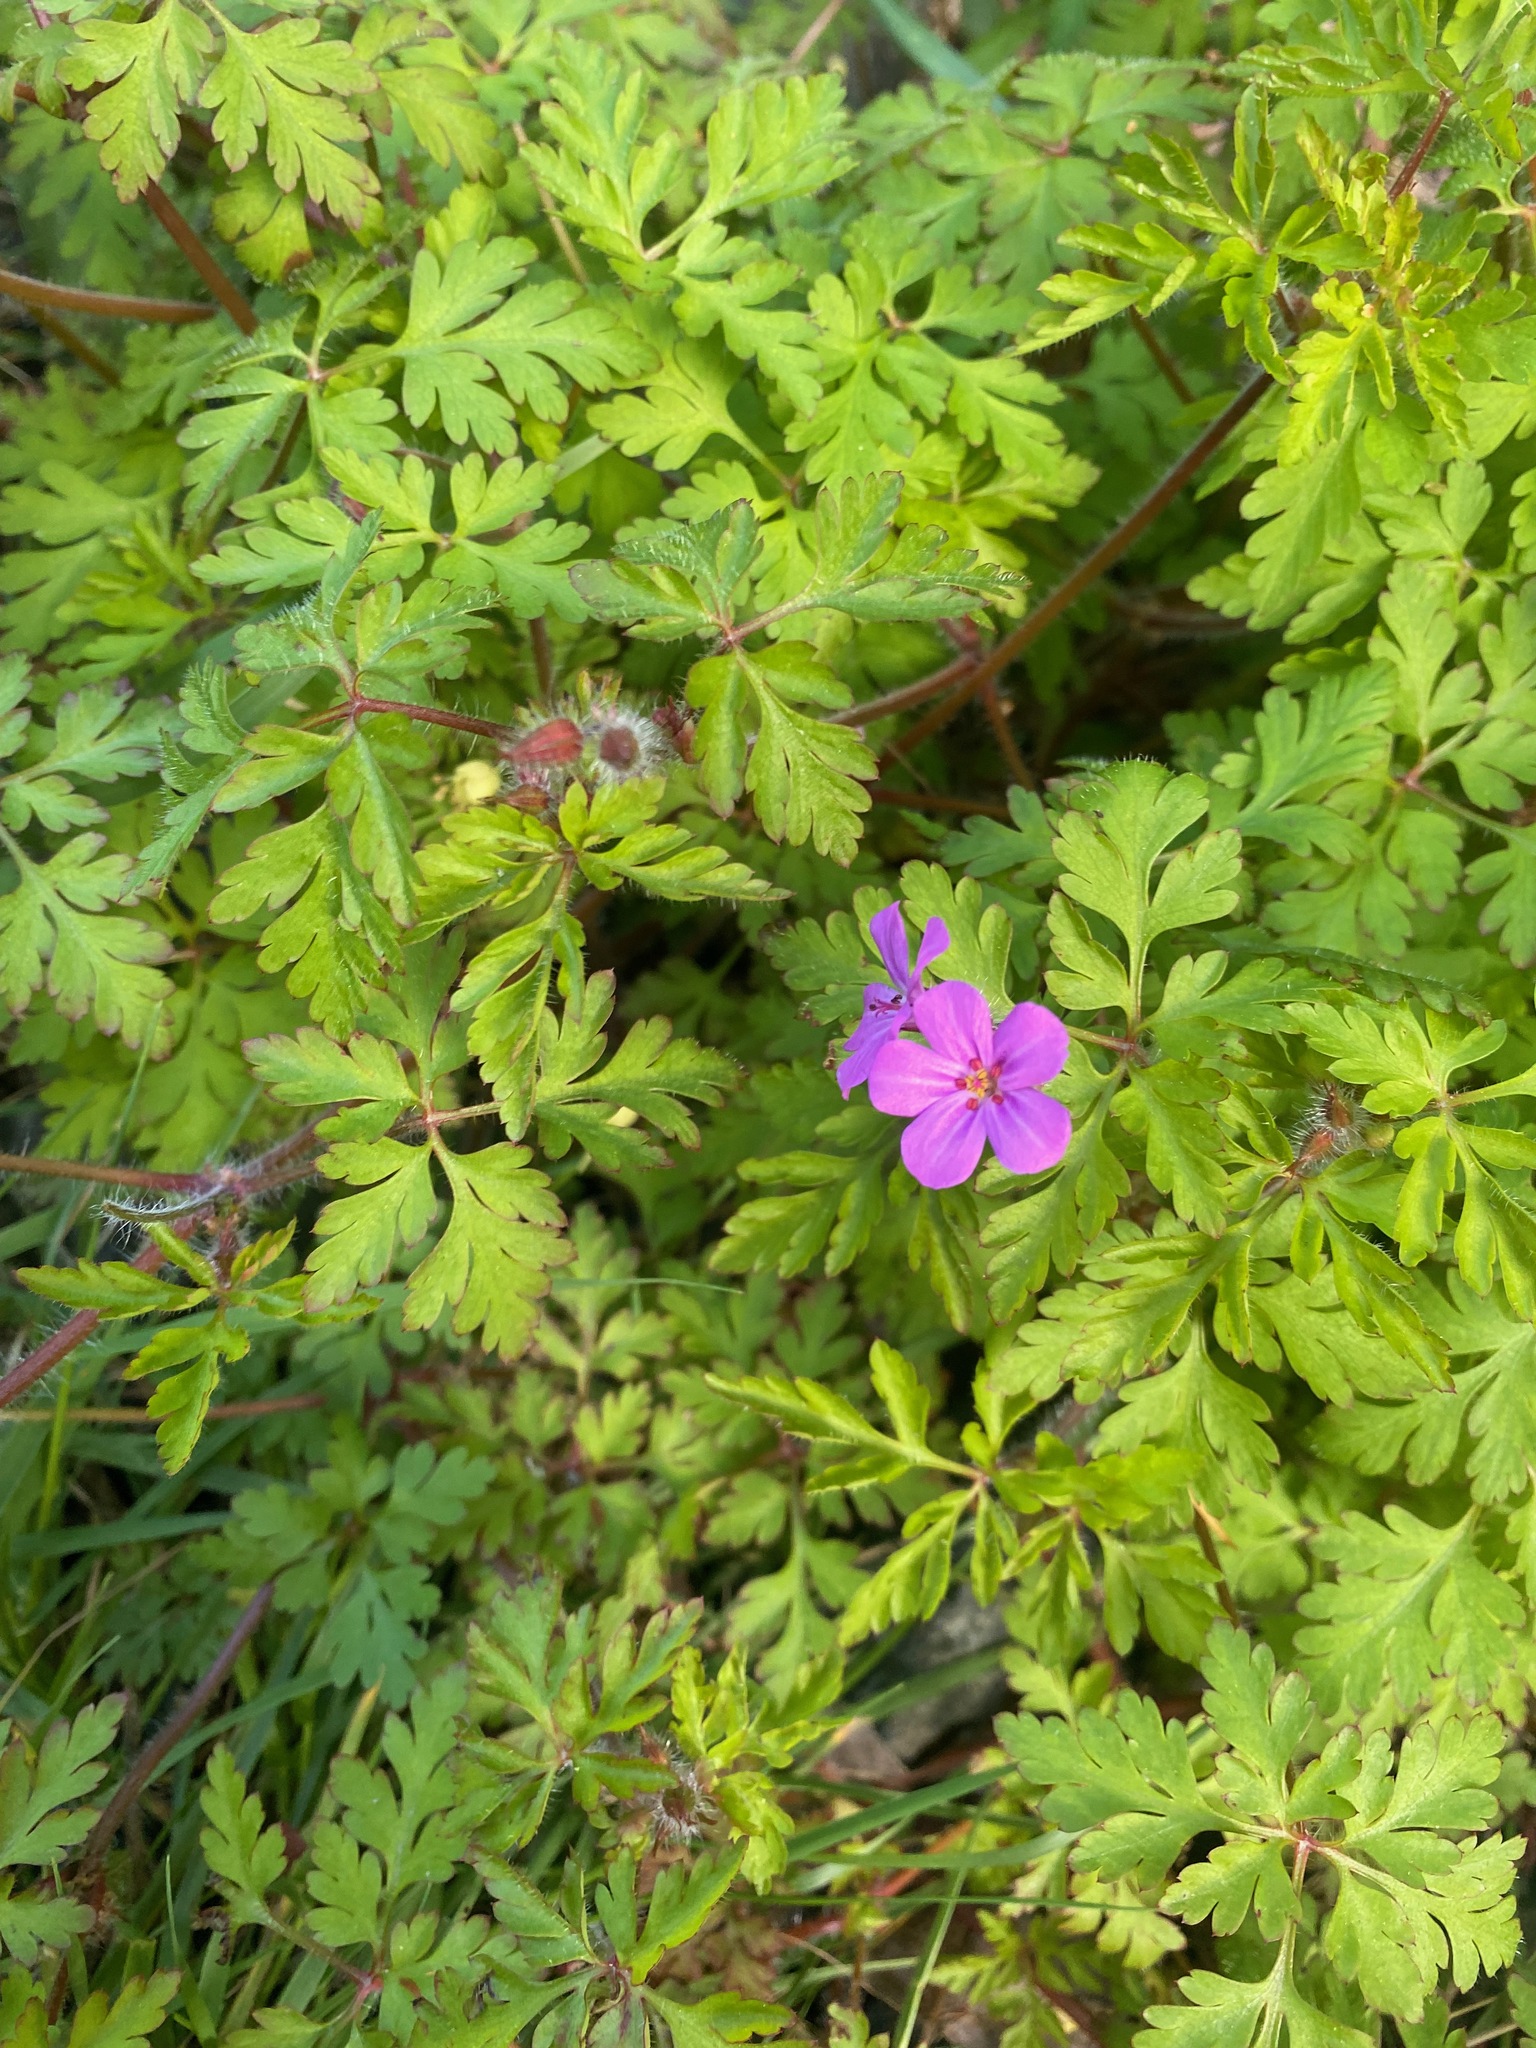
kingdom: Plantae
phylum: Tracheophyta
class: Magnoliopsida
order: Geraniales
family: Geraniaceae
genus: Geranium
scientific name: Geranium robertianum
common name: Herb-robert
